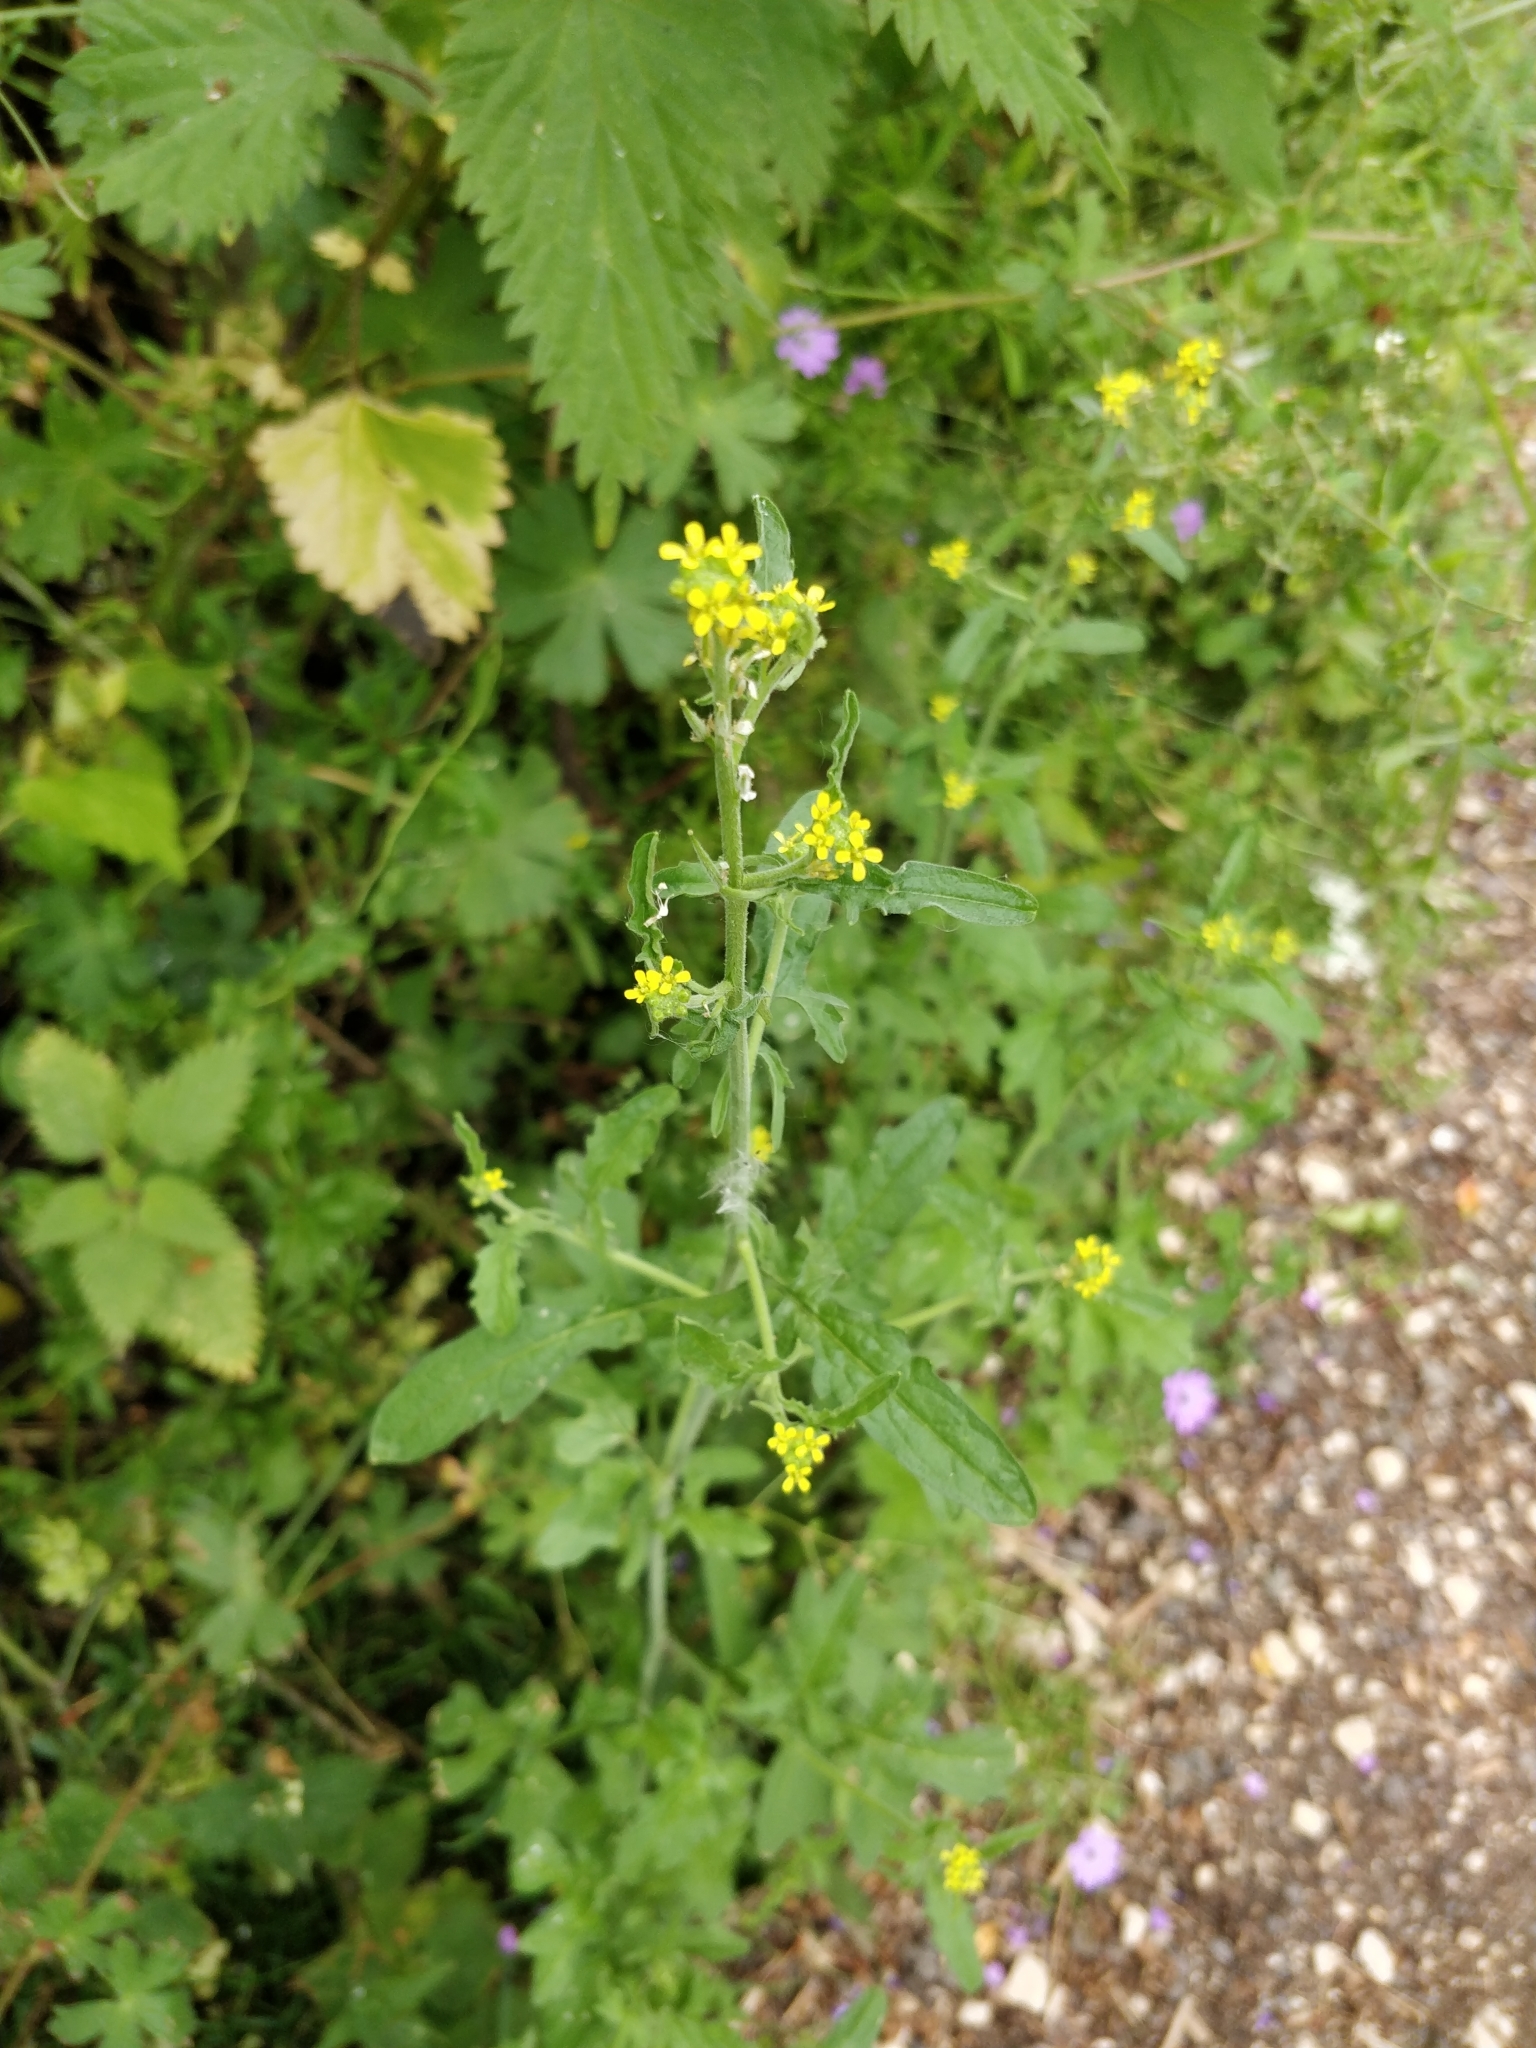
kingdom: Plantae
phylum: Tracheophyta
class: Magnoliopsida
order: Brassicales
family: Brassicaceae
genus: Sisymbrium
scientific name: Sisymbrium officinale
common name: Hedge mustard
